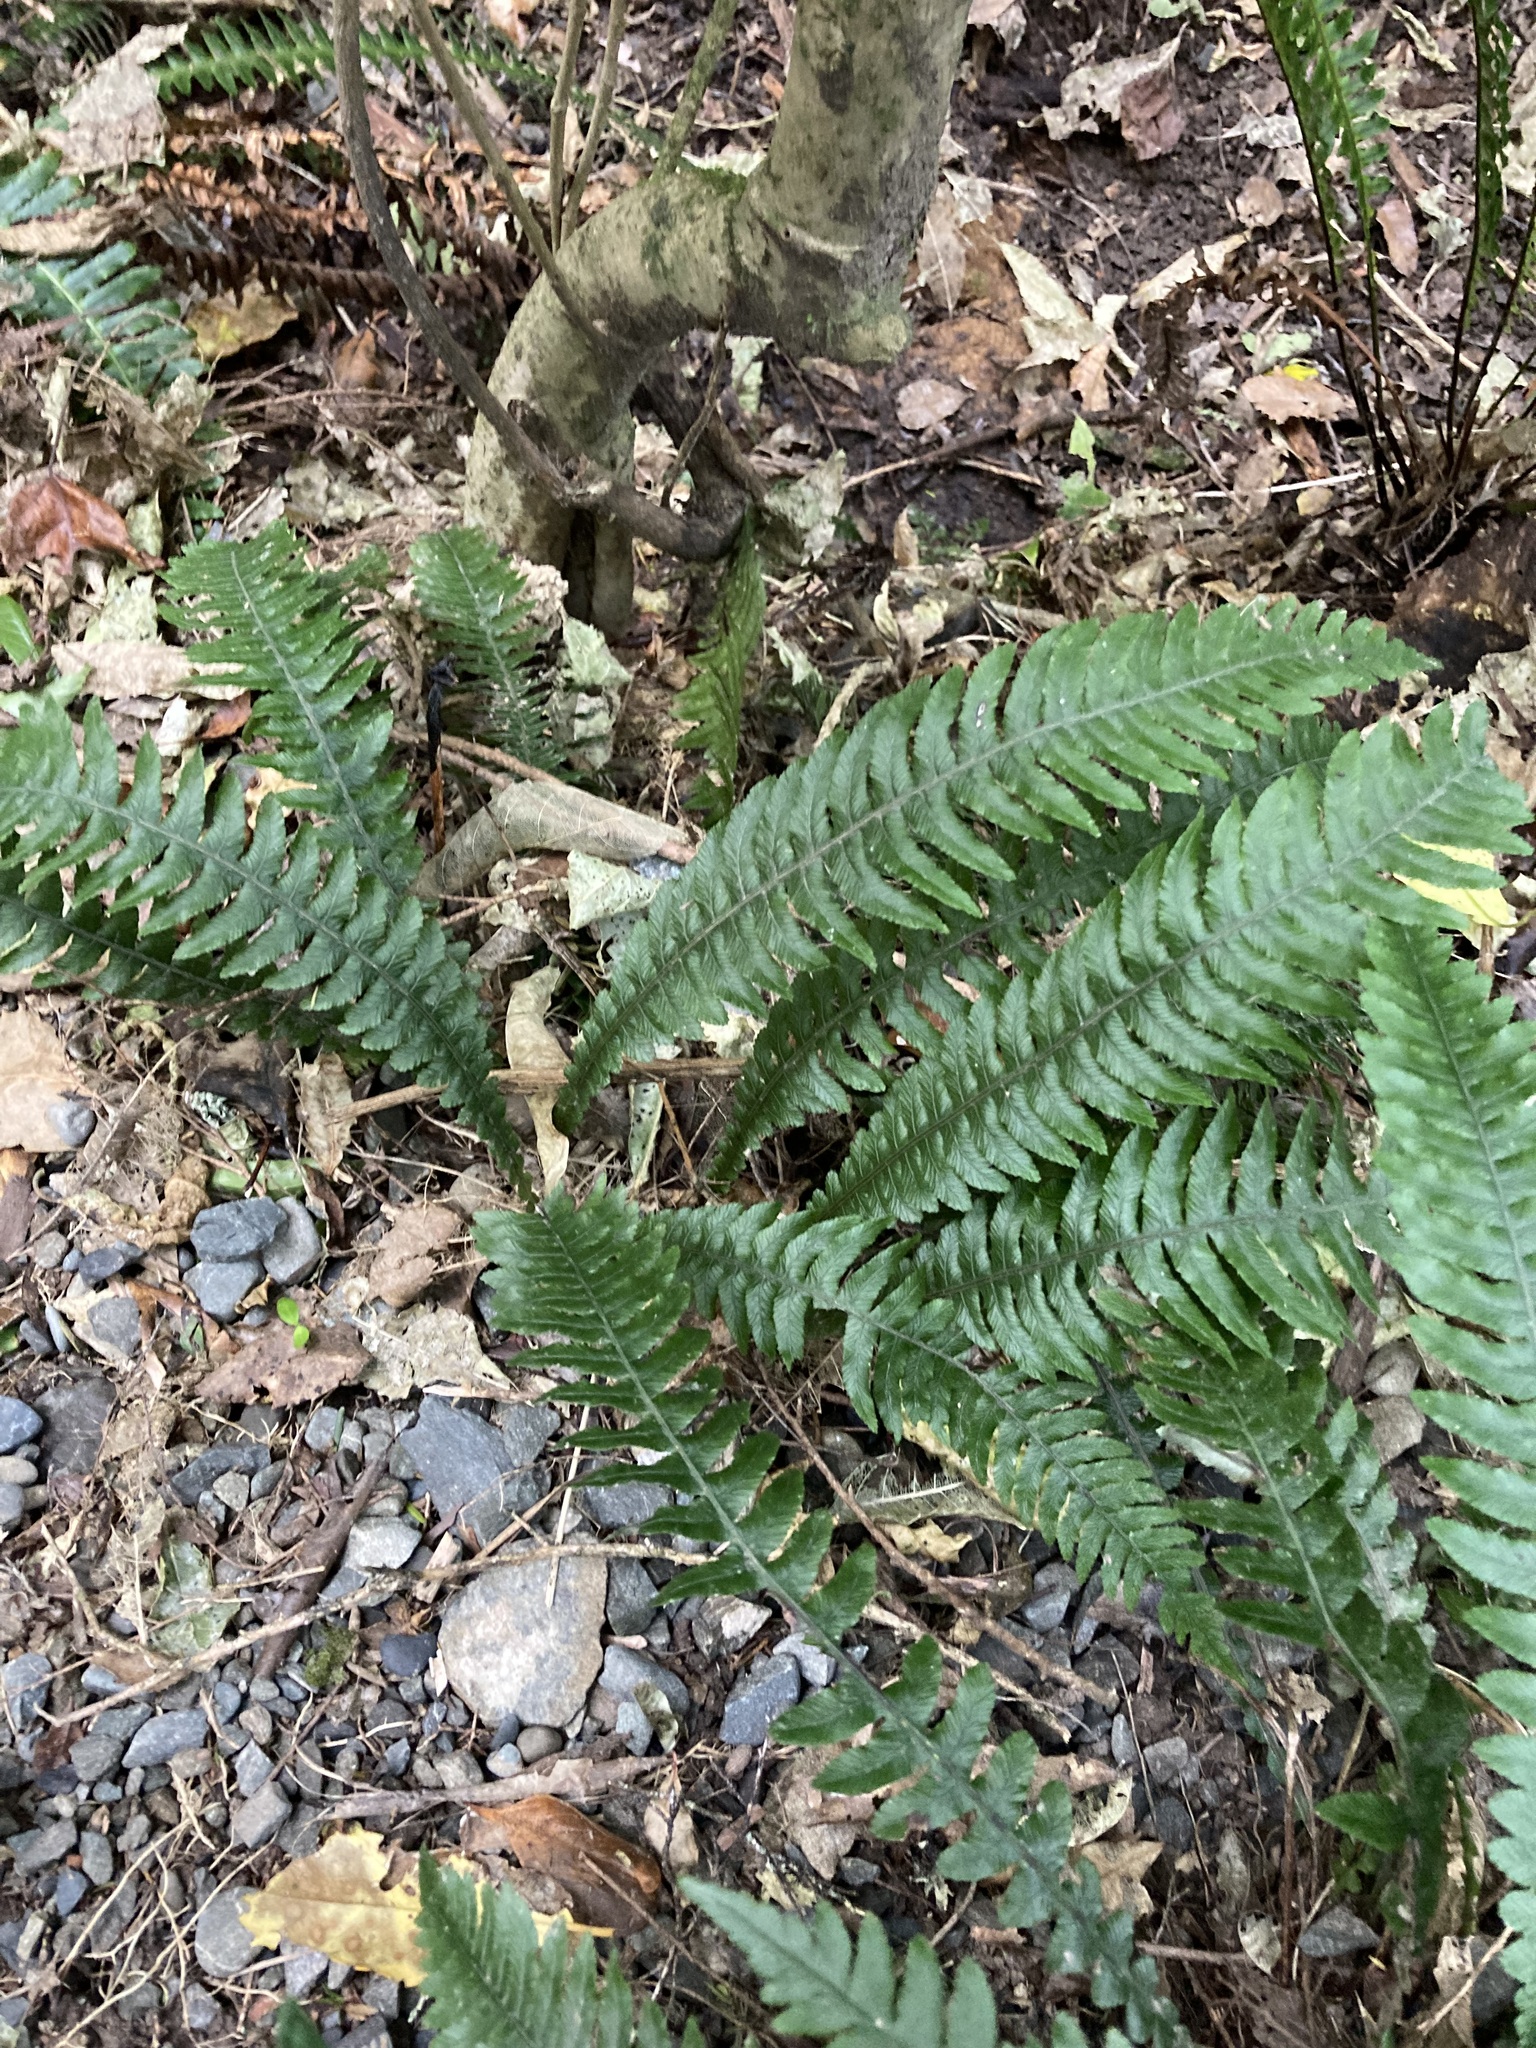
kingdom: Plantae
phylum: Tracheophyta
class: Polypodiopsida
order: Polypodiales
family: Blechnaceae
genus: Austroblechnum
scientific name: Austroblechnum lanceolatum
